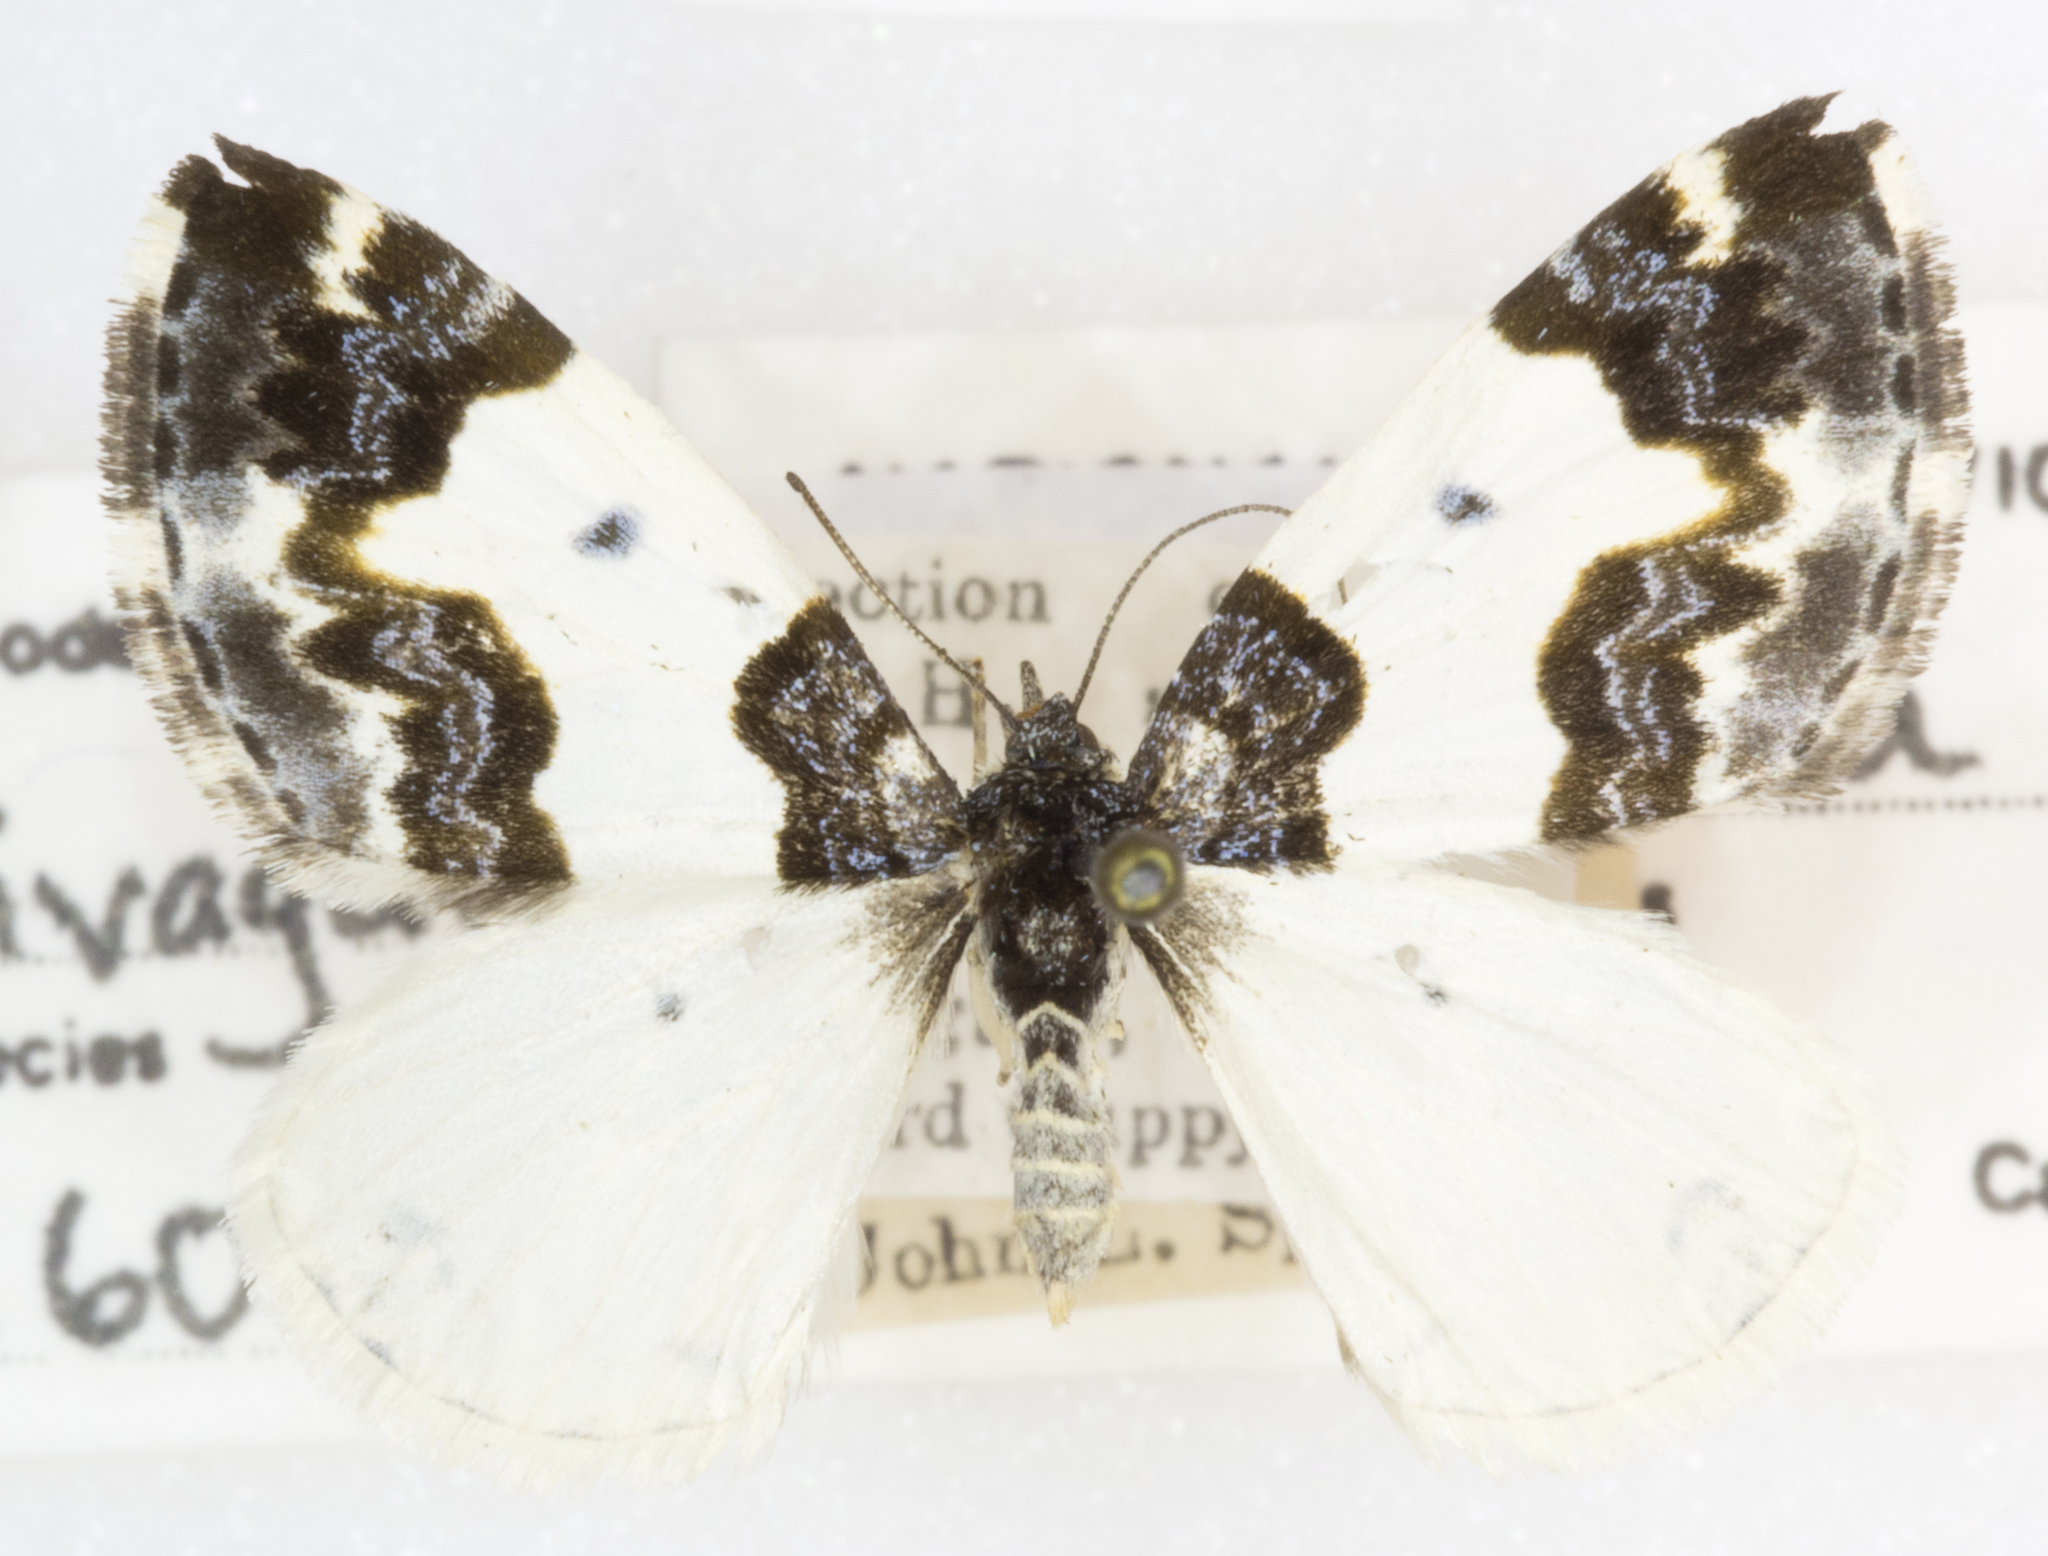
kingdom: Animalia
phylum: Arthropoda
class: Insecta
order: Lepidoptera
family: Geometridae
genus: Mesoleuca
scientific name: Mesoleuca gratulata
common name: Half-white carpet moth
